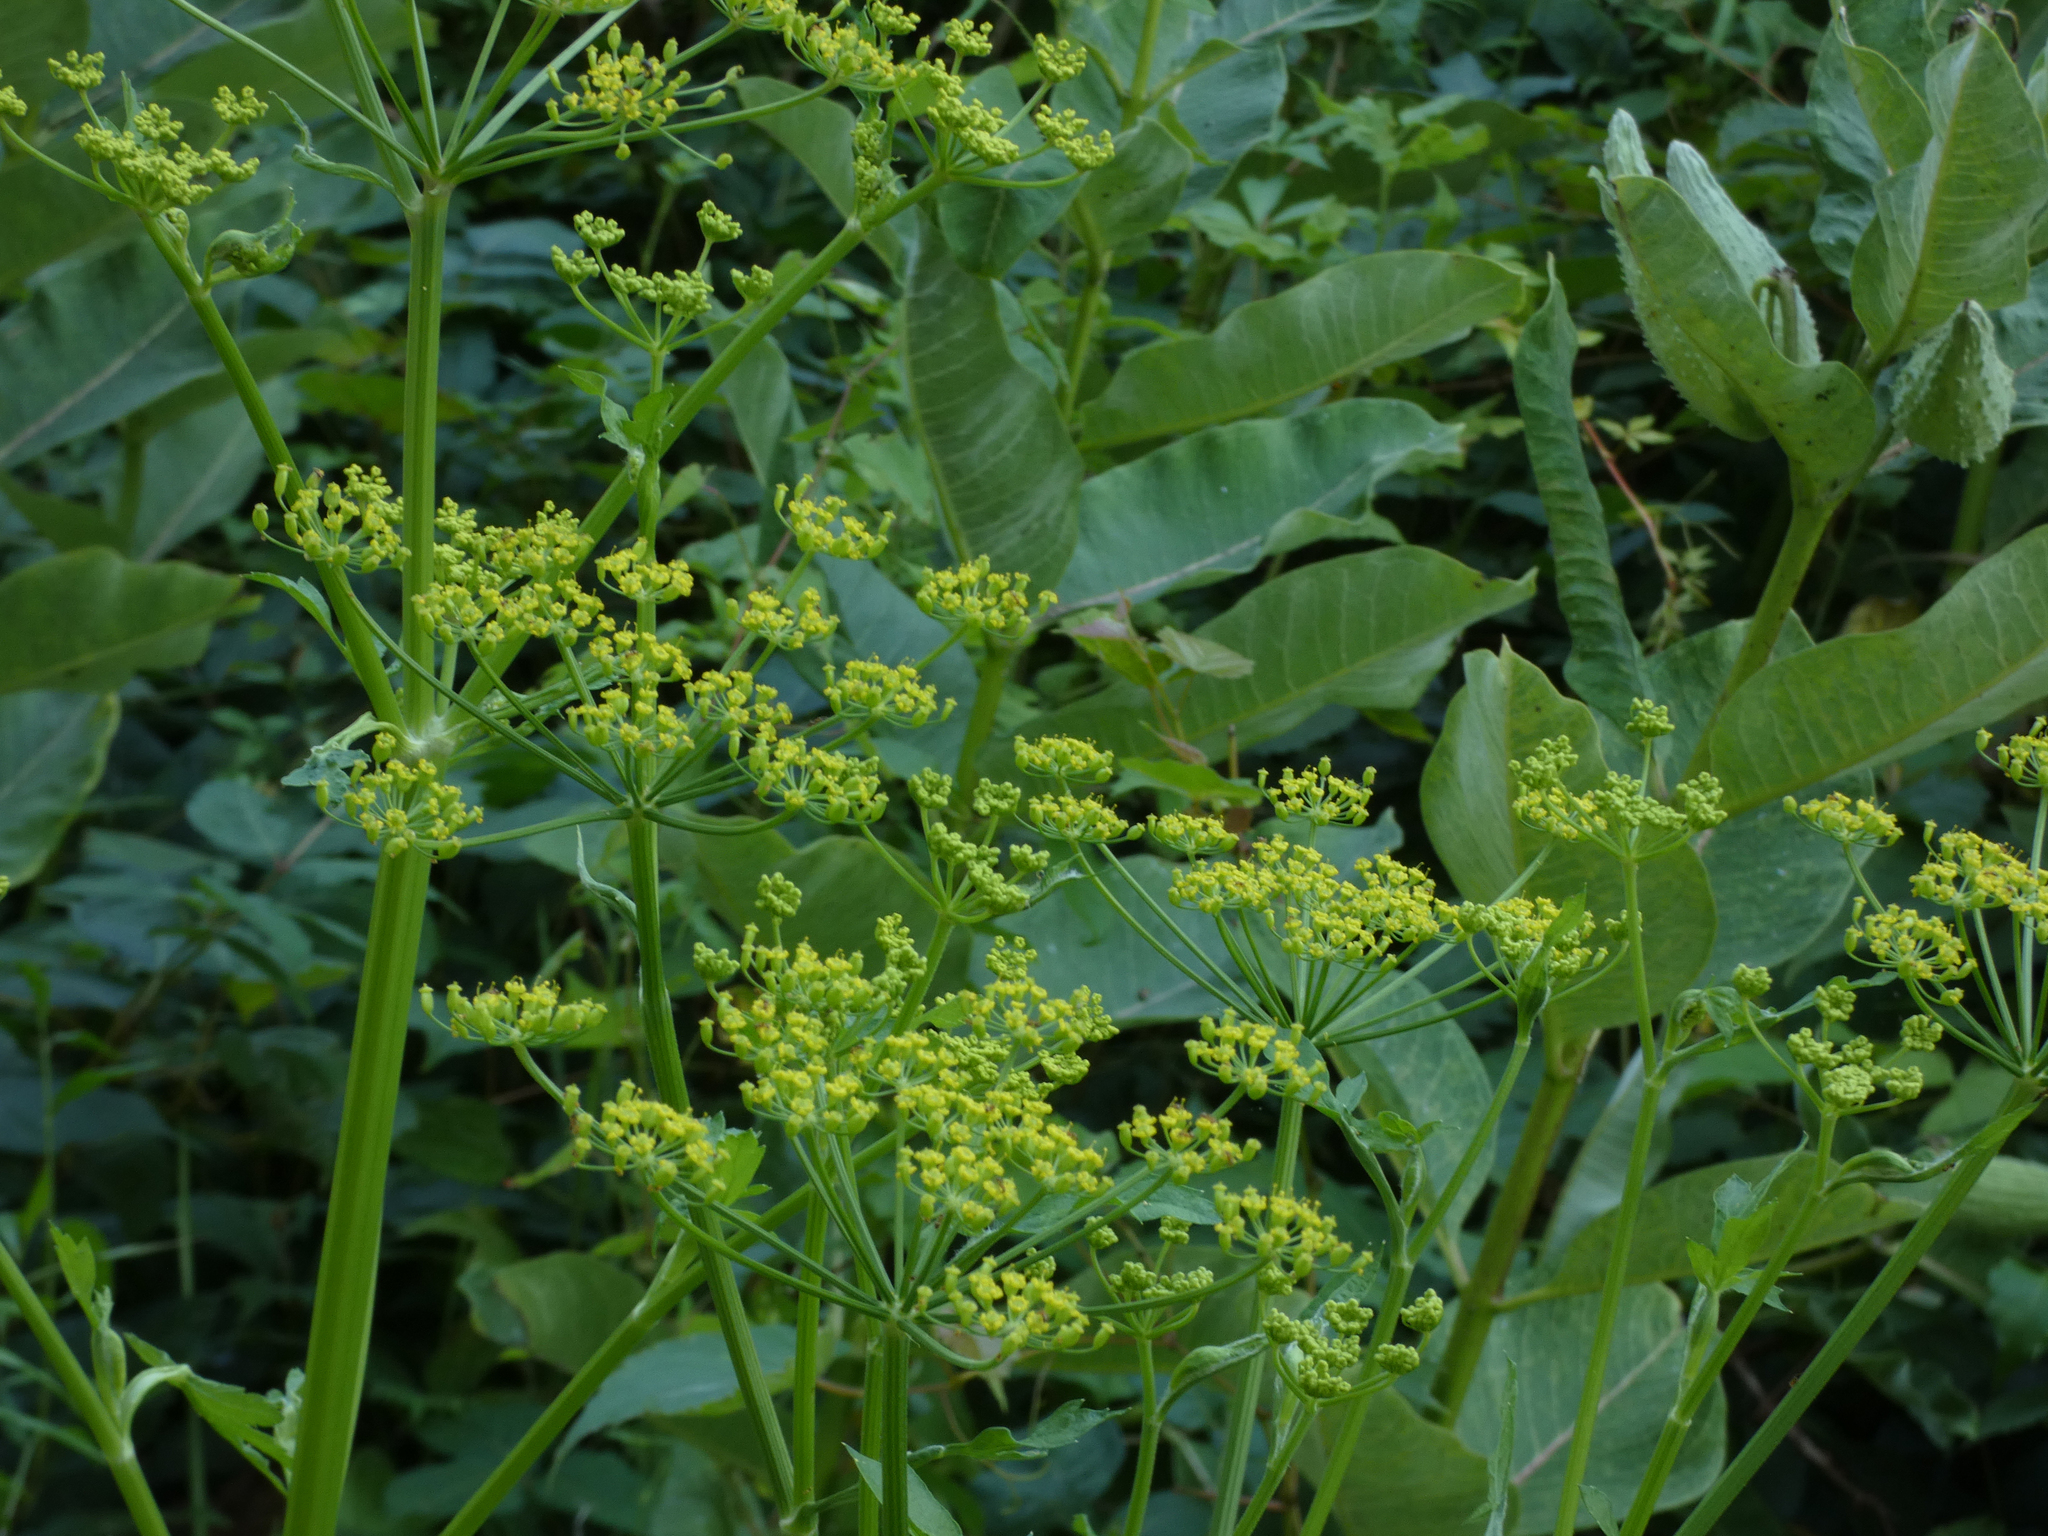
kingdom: Plantae
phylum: Tracheophyta
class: Magnoliopsida
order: Apiales
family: Apiaceae
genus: Pastinaca
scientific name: Pastinaca sativa
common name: Wild parsnip
